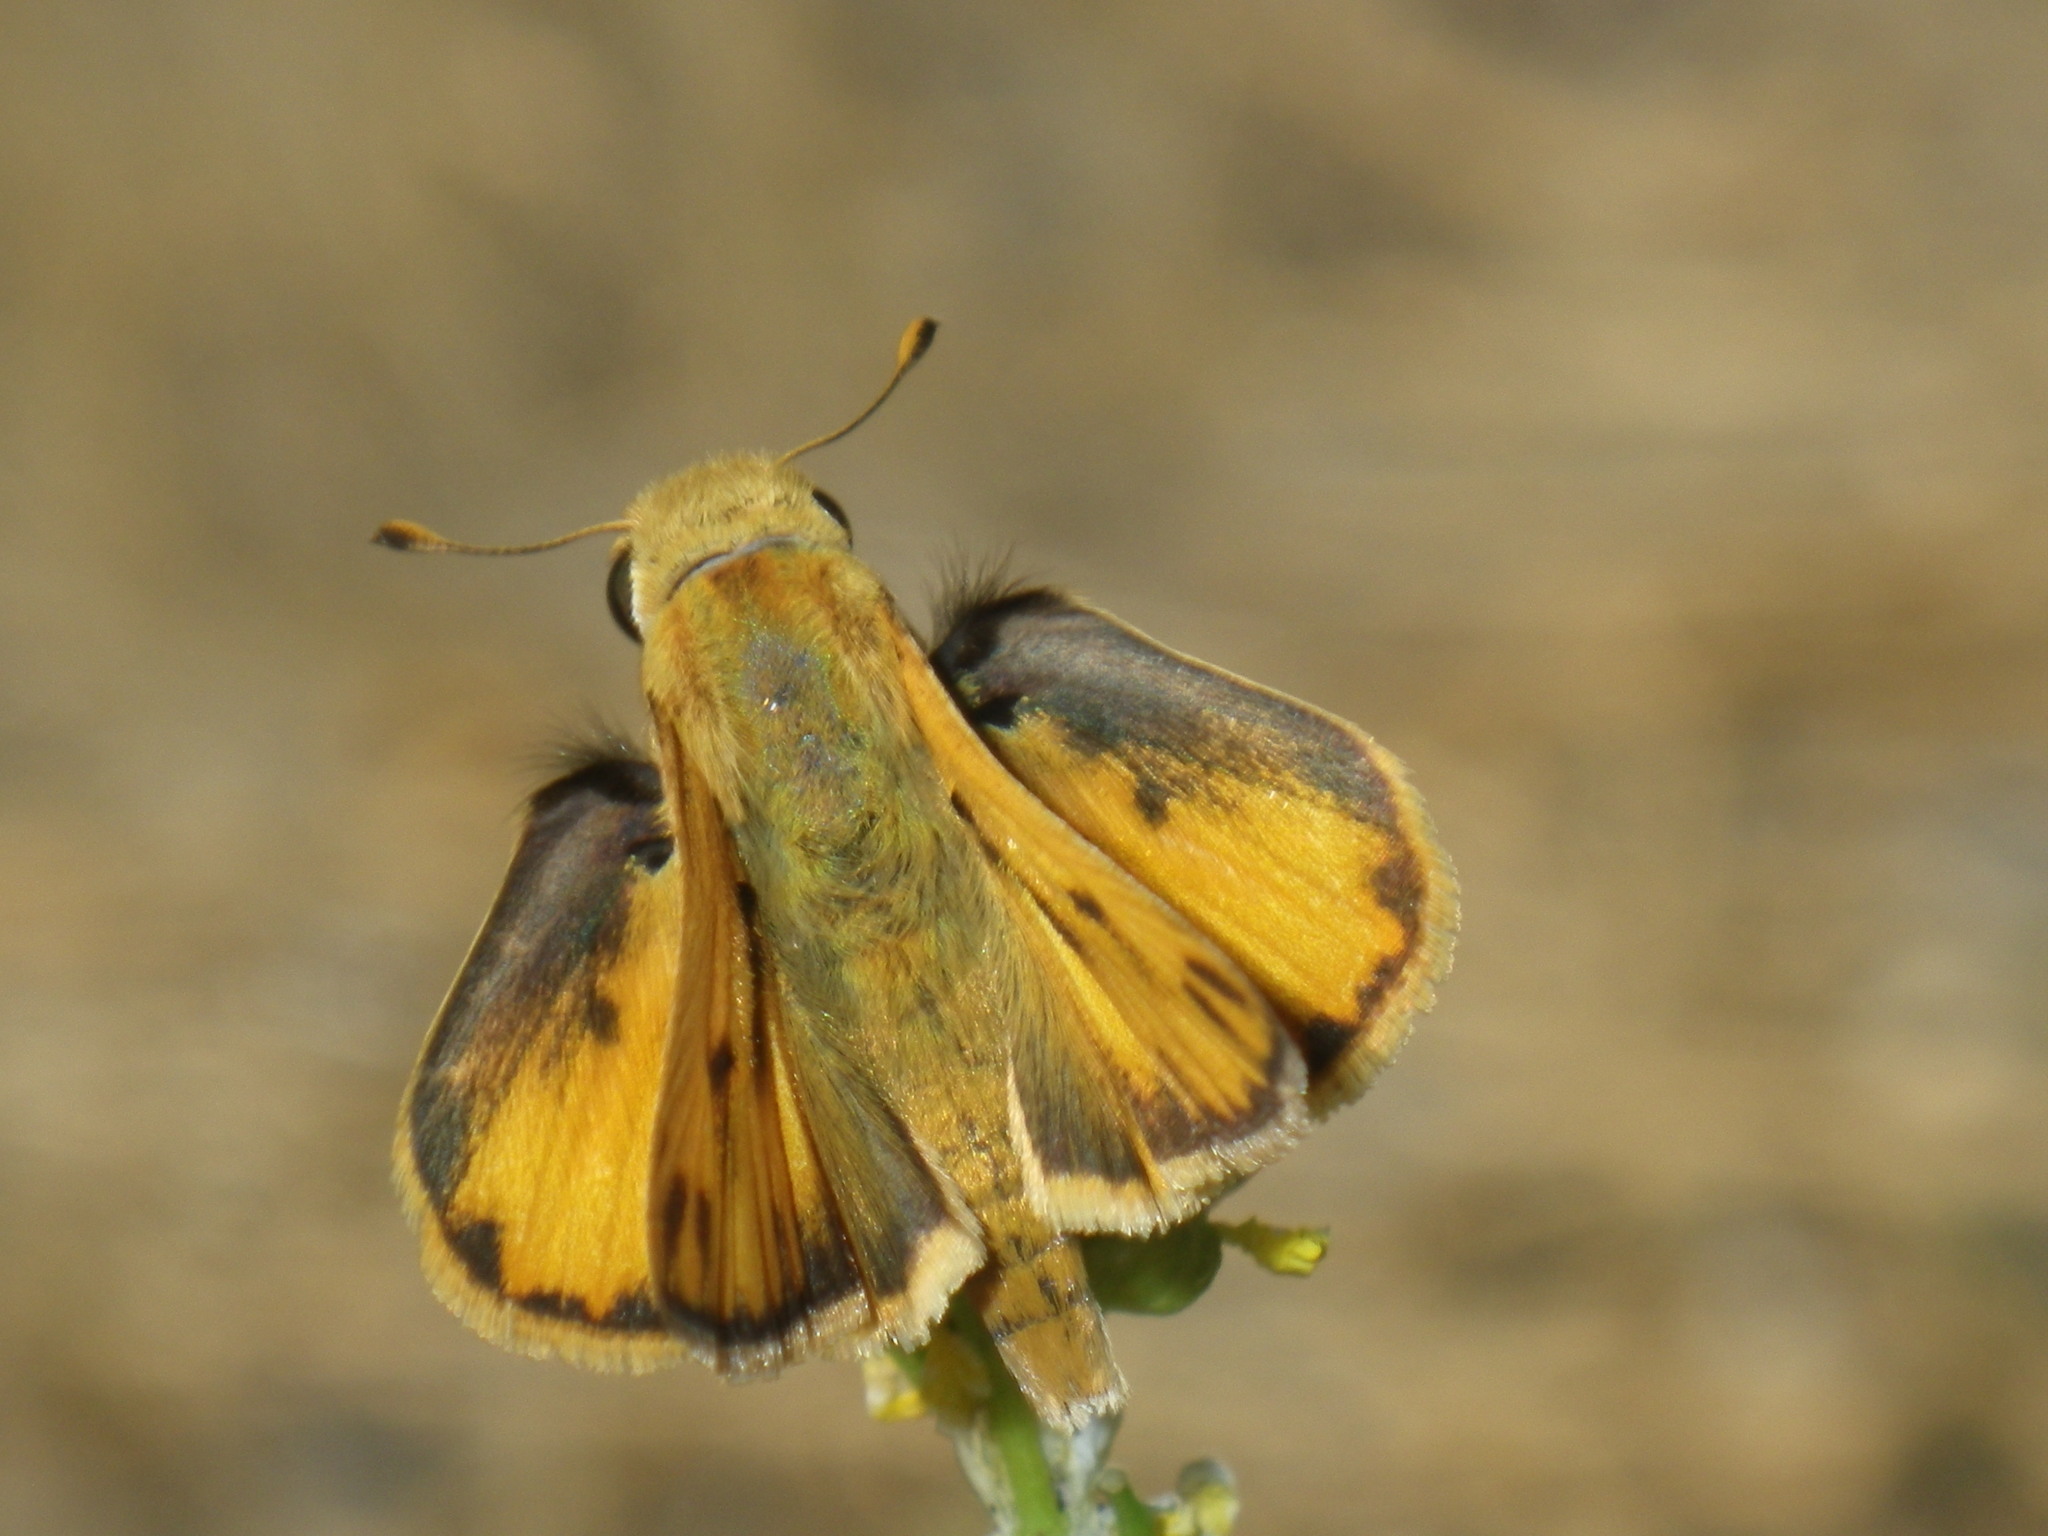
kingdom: Animalia
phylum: Arthropoda
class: Insecta
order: Lepidoptera
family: Hesperiidae
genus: Hylephila
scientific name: Hylephila phyleus
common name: Fiery skipper
